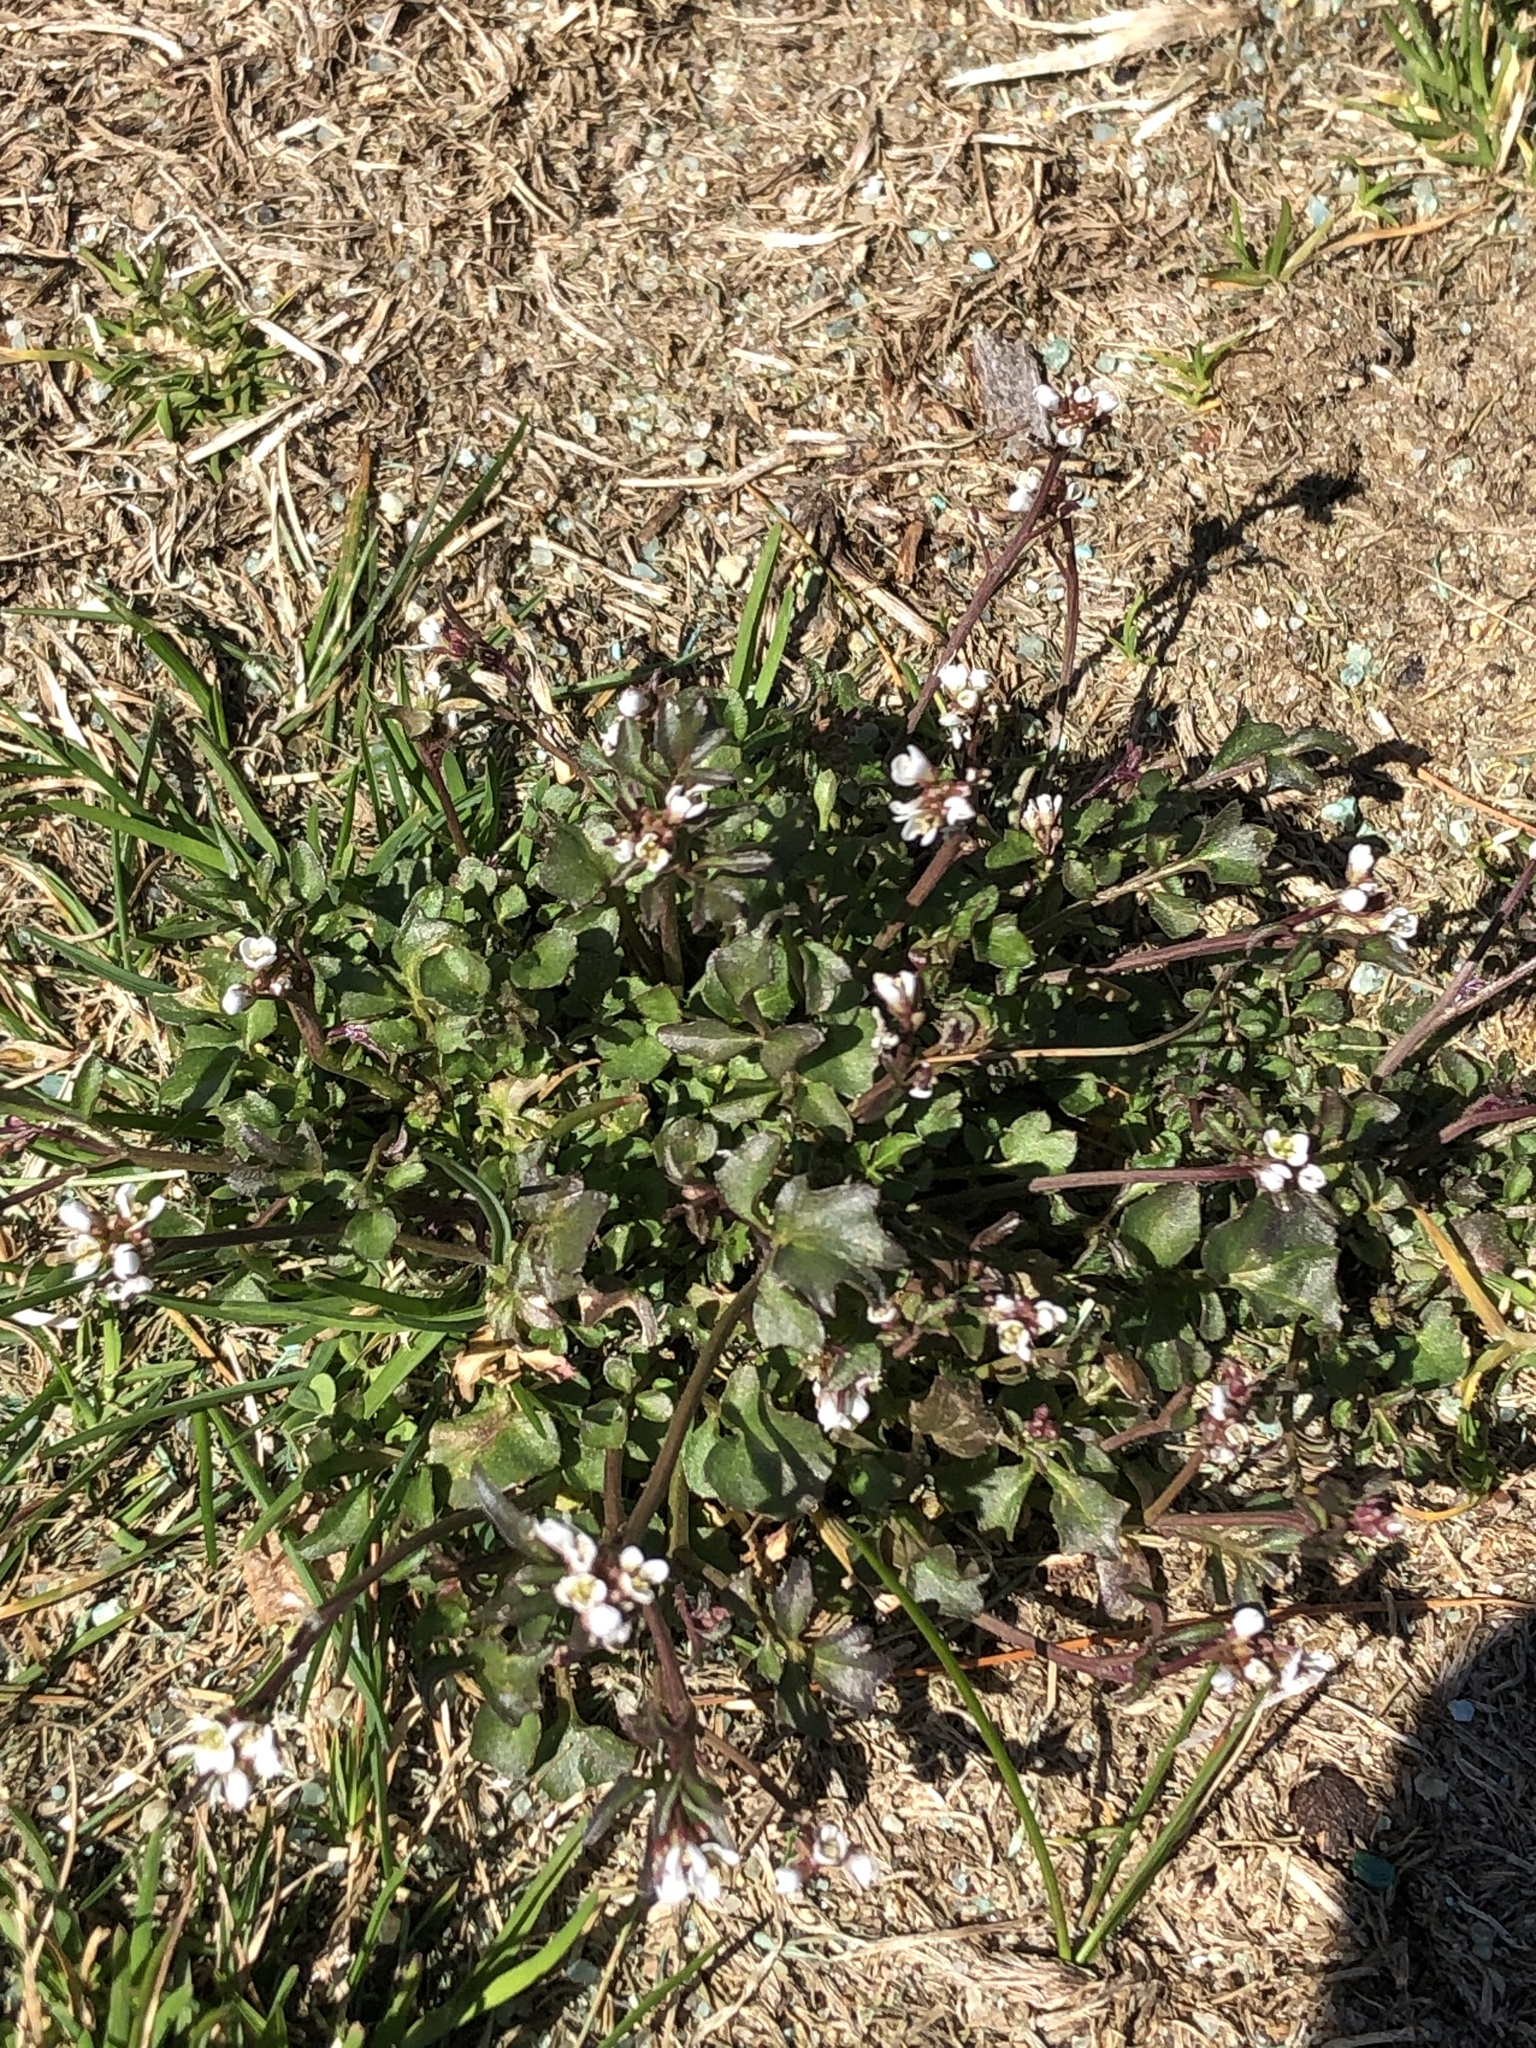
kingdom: Plantae
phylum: Tracheophyta
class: Magnoliopsida
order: Brassicales
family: Brassicaceae
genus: Cardamine
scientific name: Cardamine hirsuta
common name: Hairy bittercress
